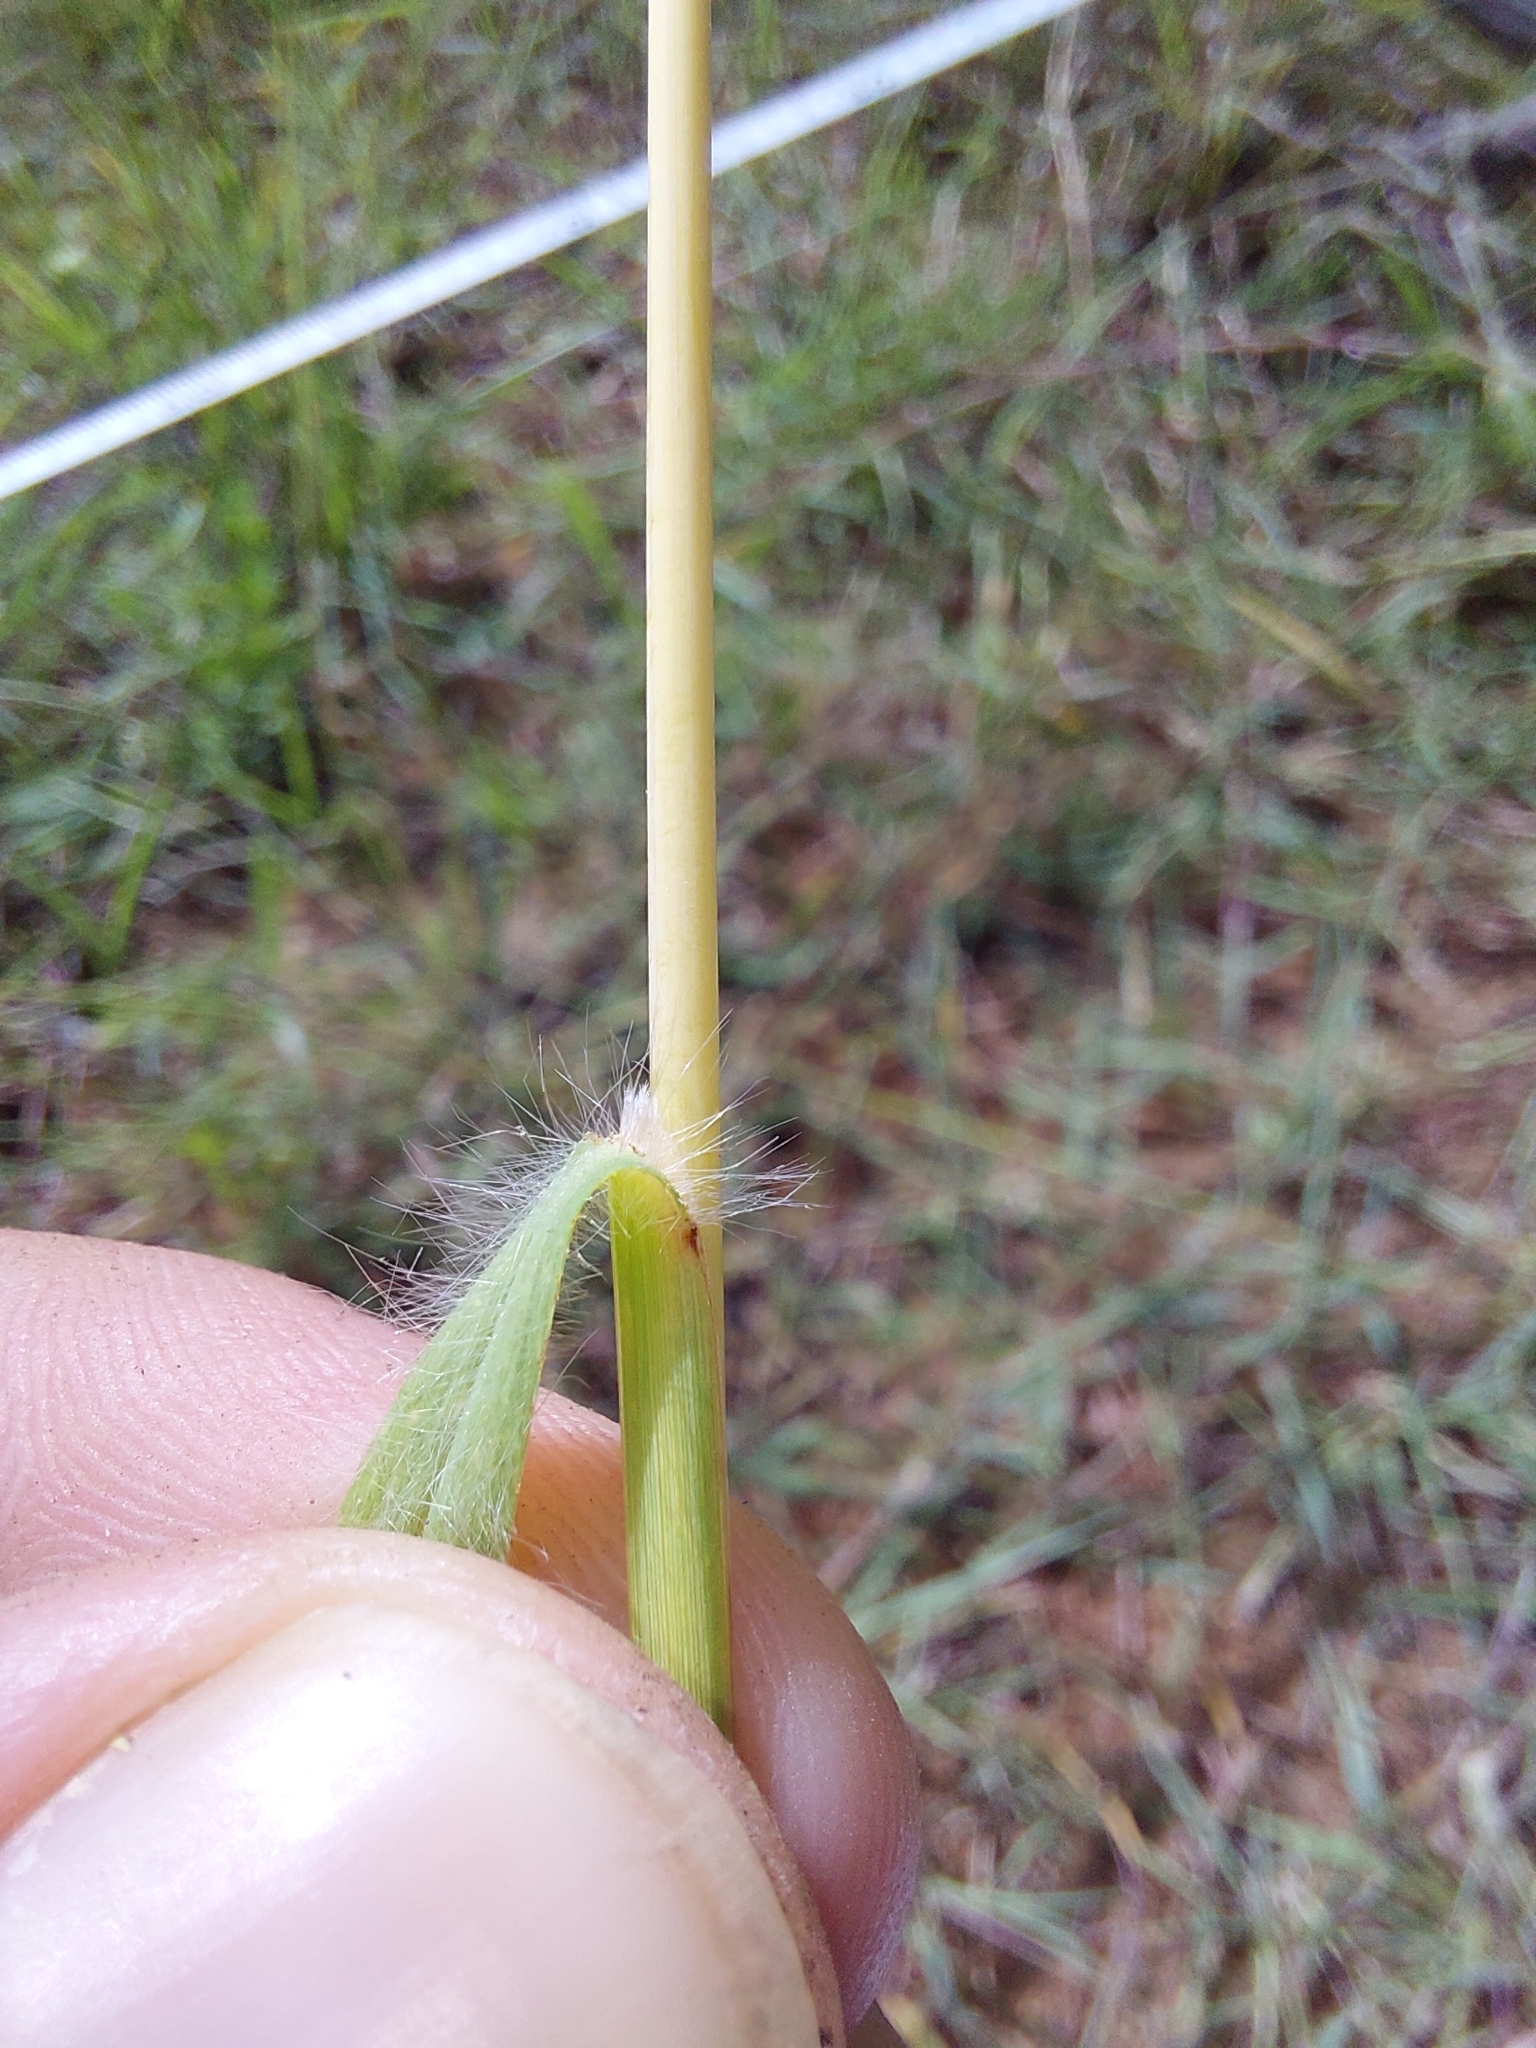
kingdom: Plantae
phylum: Tracheophyta
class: Liliopsida
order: Poales
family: Poaceae
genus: Themeda
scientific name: Themeda triandra
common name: Kangaroo grass
